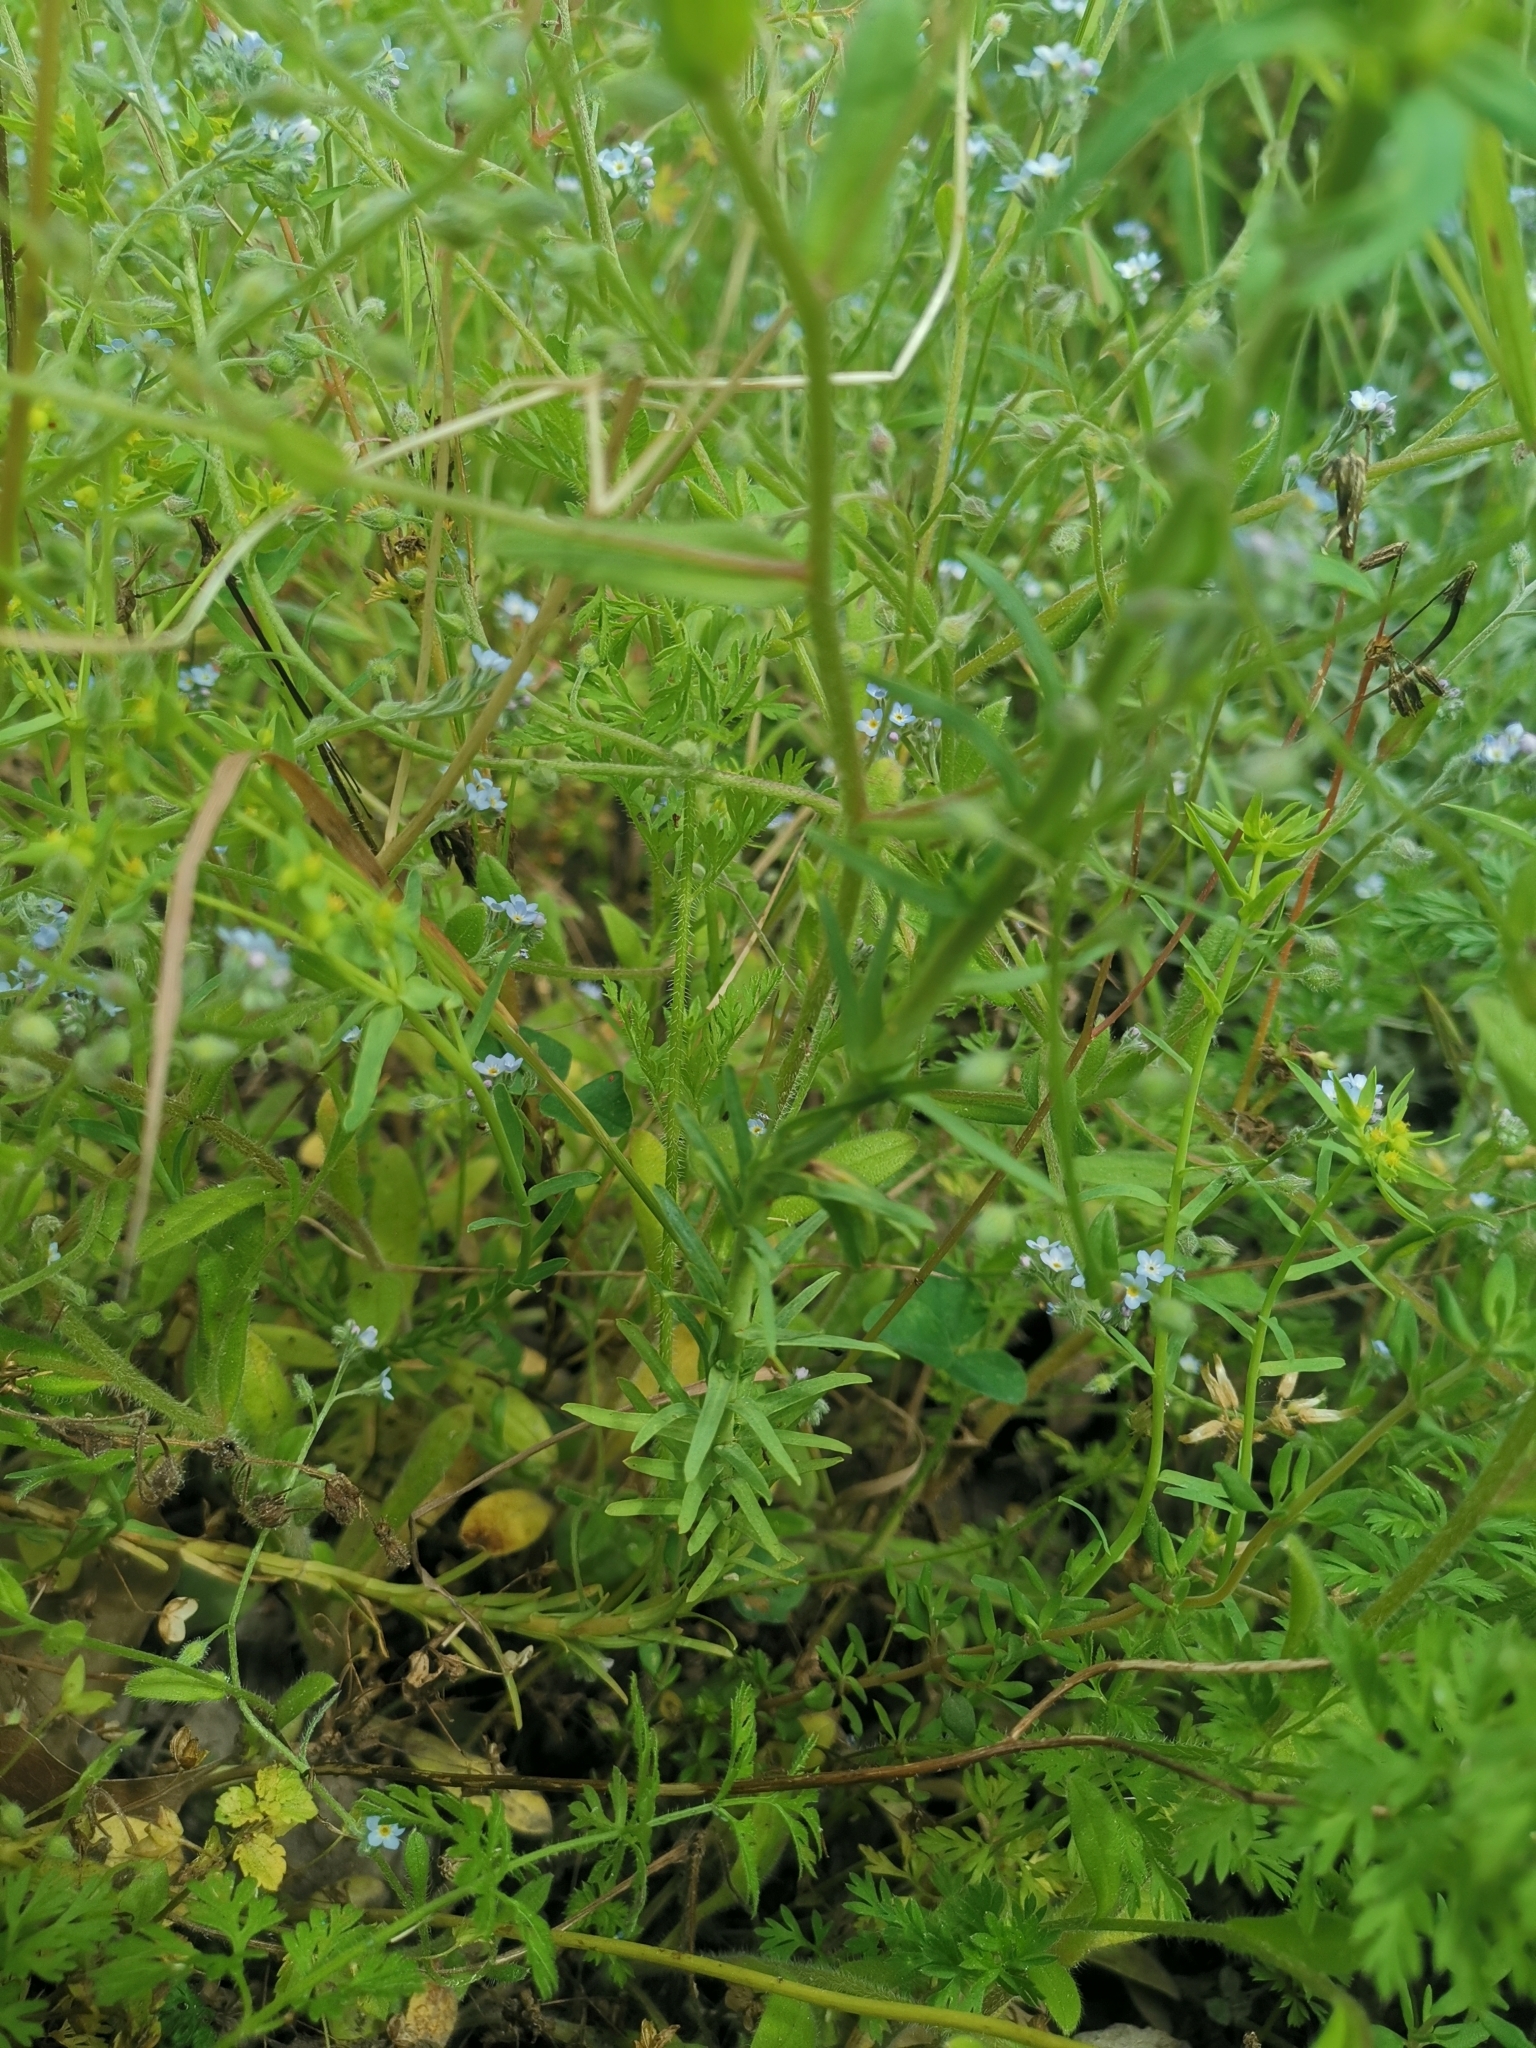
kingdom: Plantae
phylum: Tracheophyta
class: Magnoliopsida
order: Malpighiales
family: Euphorbiaceae
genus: Euphorbia
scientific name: Euphorbia exigua
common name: Dwarf spurge
